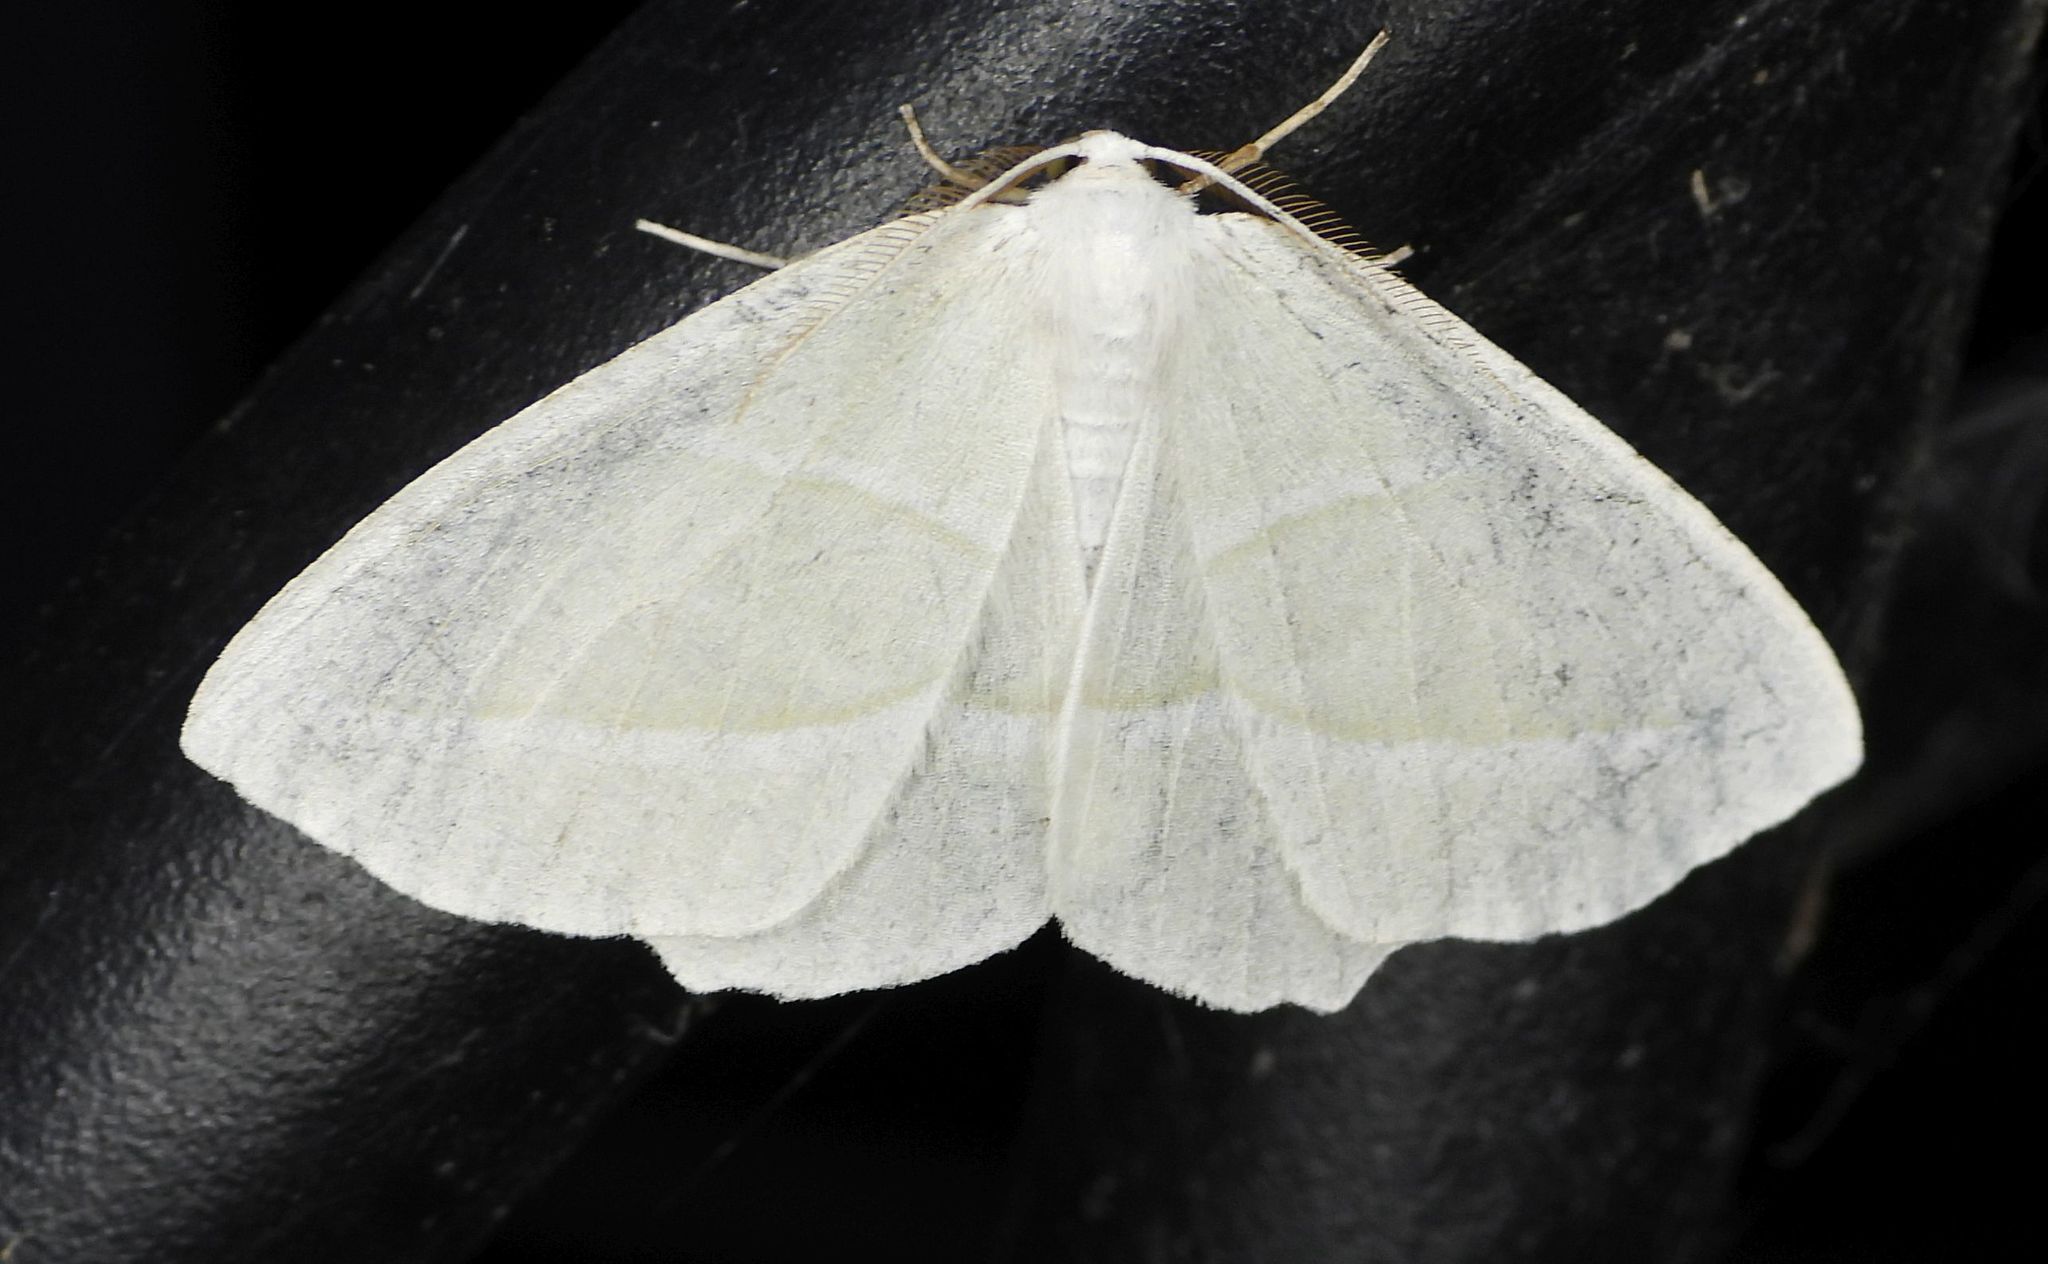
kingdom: Animalia
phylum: Arthropoda
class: Insecta
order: Lepidoptera
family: Geometridae
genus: Campaea
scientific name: Campaea perlata
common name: Fringed looper
